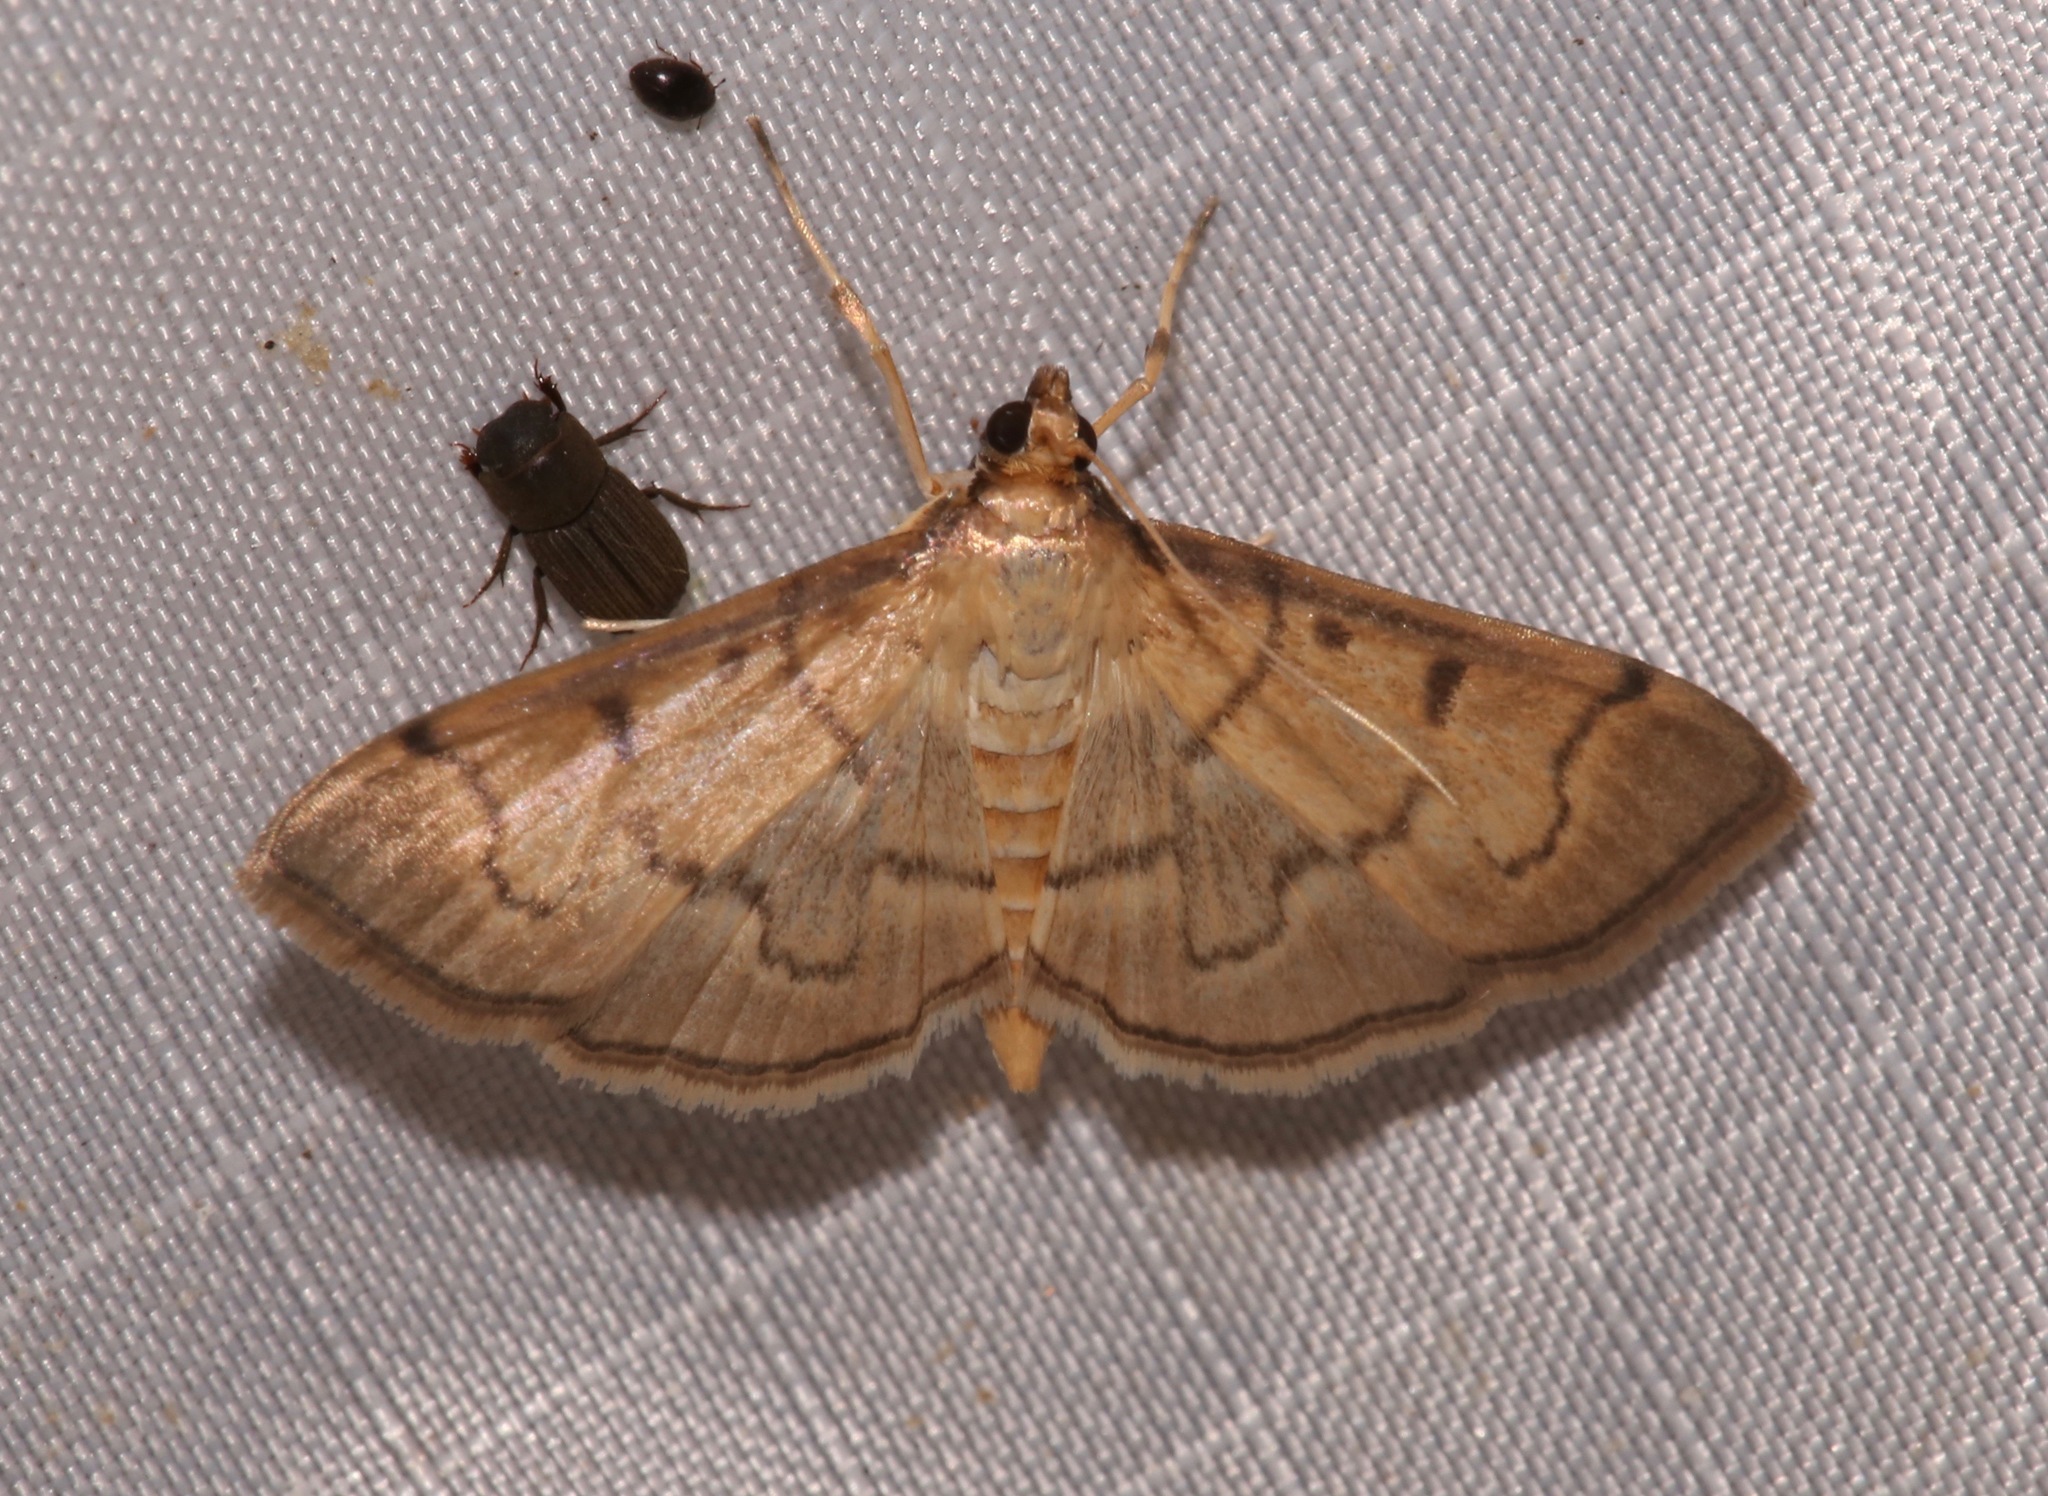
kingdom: Animalia
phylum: Arthropoda
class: Insecta
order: Lepidoptera
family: Crambidae
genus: Herpetogramma
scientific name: Herpetogramma theseusalis
